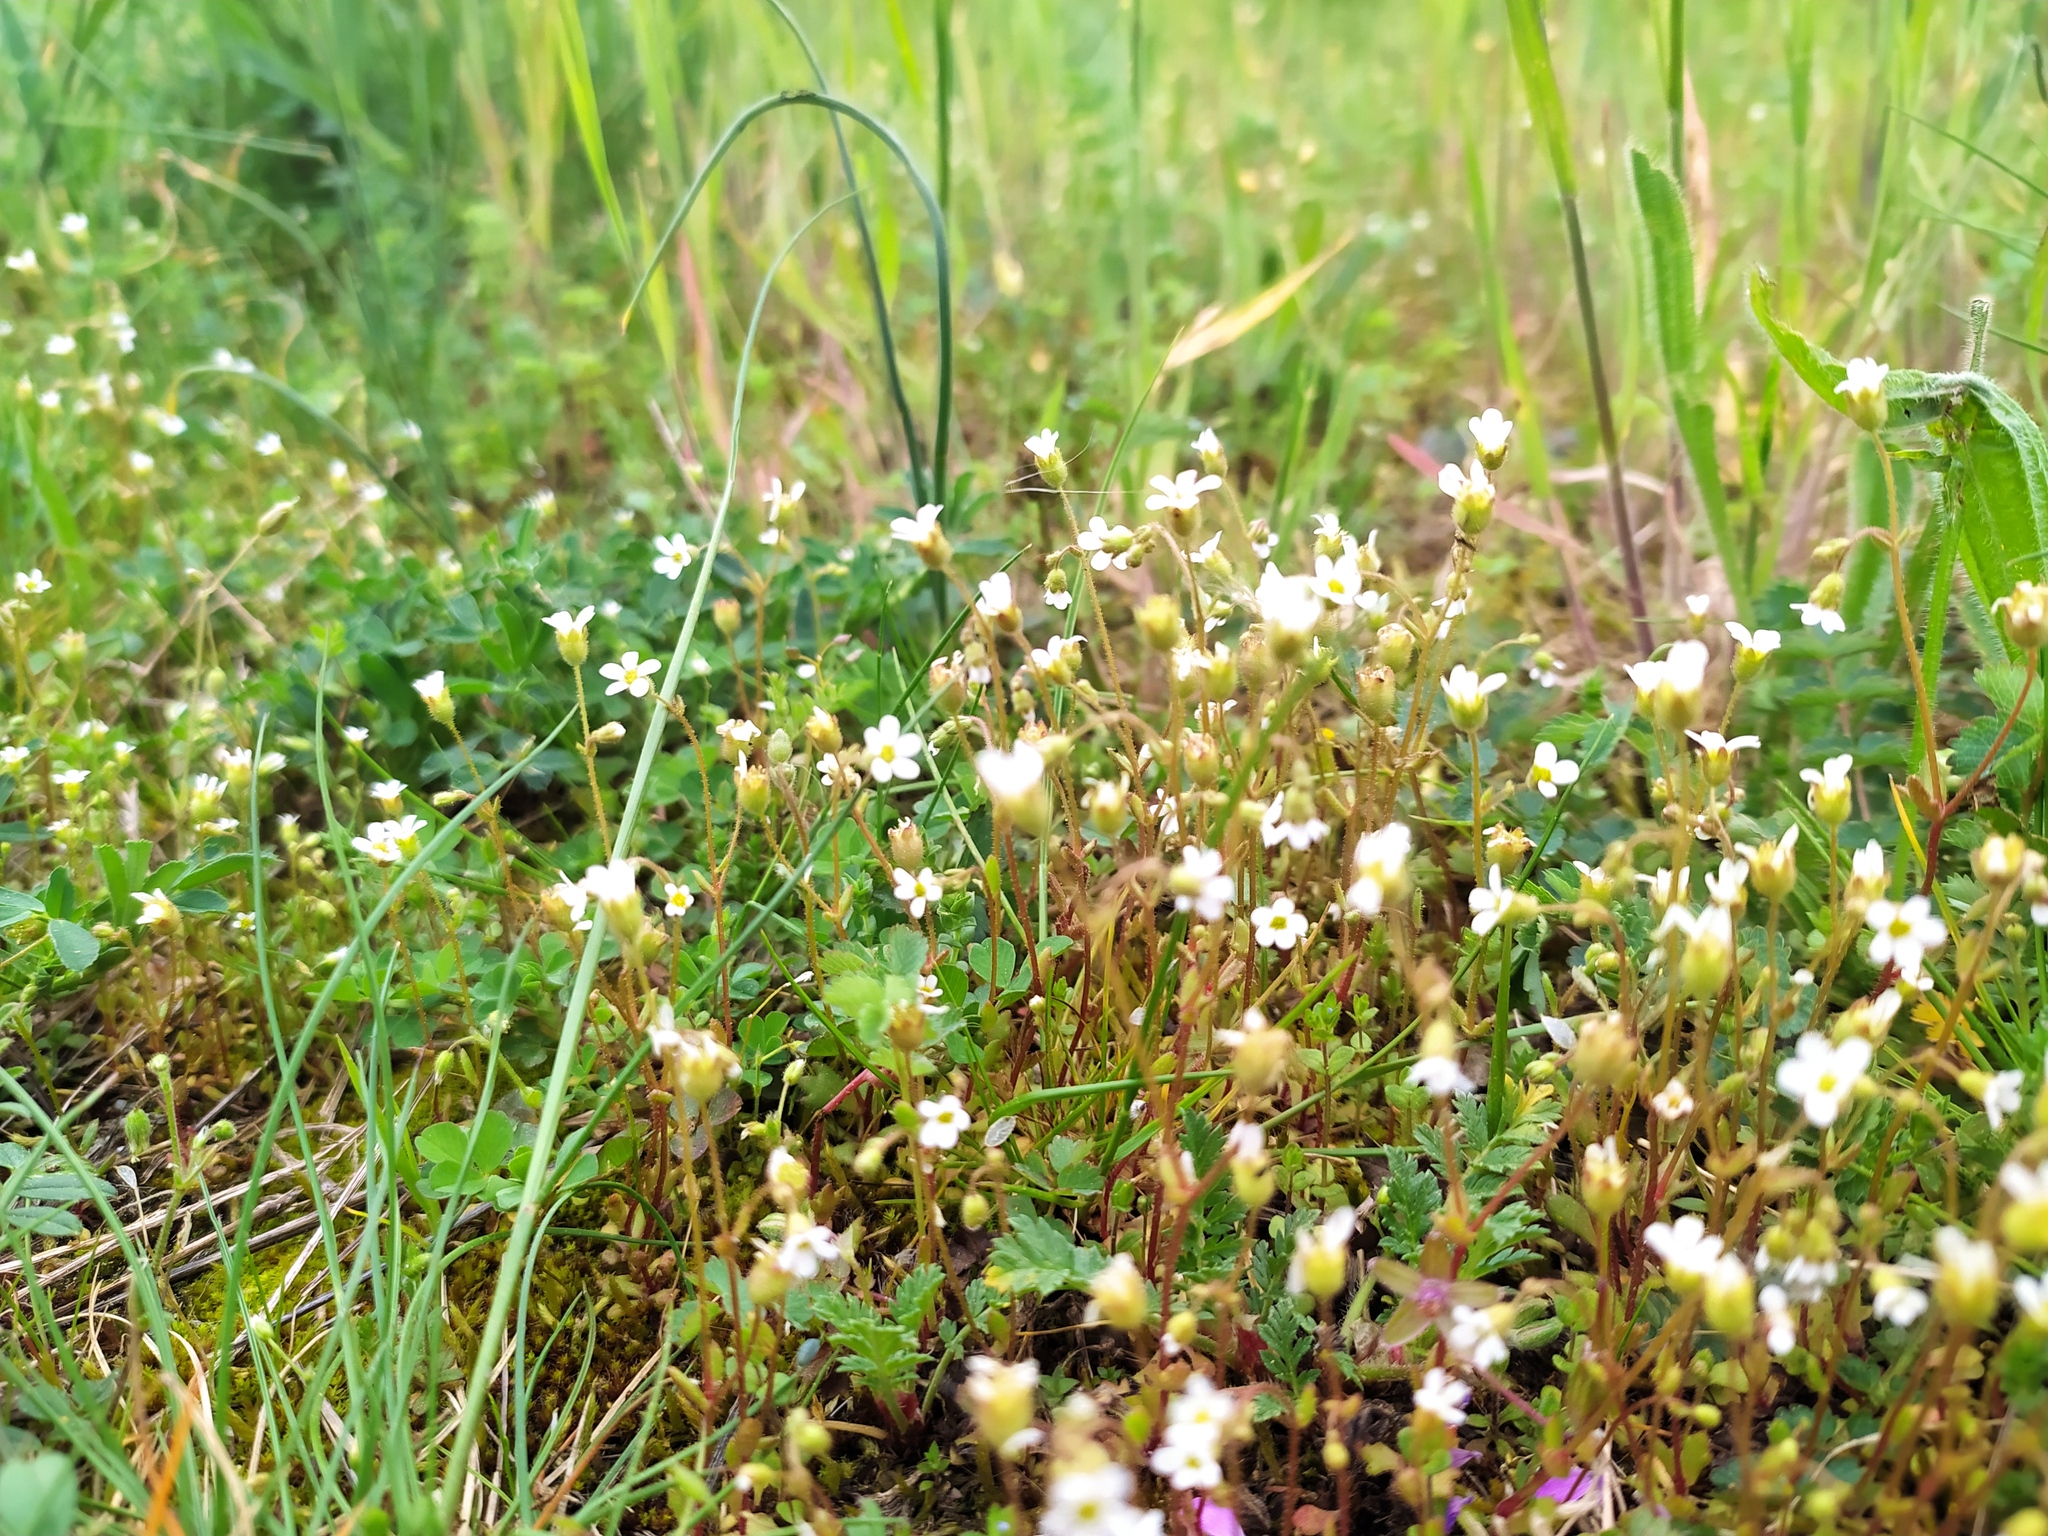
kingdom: Plantae
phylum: Tracheophyta
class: Magnoliopsida
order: Saxifragales
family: Saxifragaceae
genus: Saxifraga
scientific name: Saxifraga tridactylites
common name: Rue-leaved saxifrage
